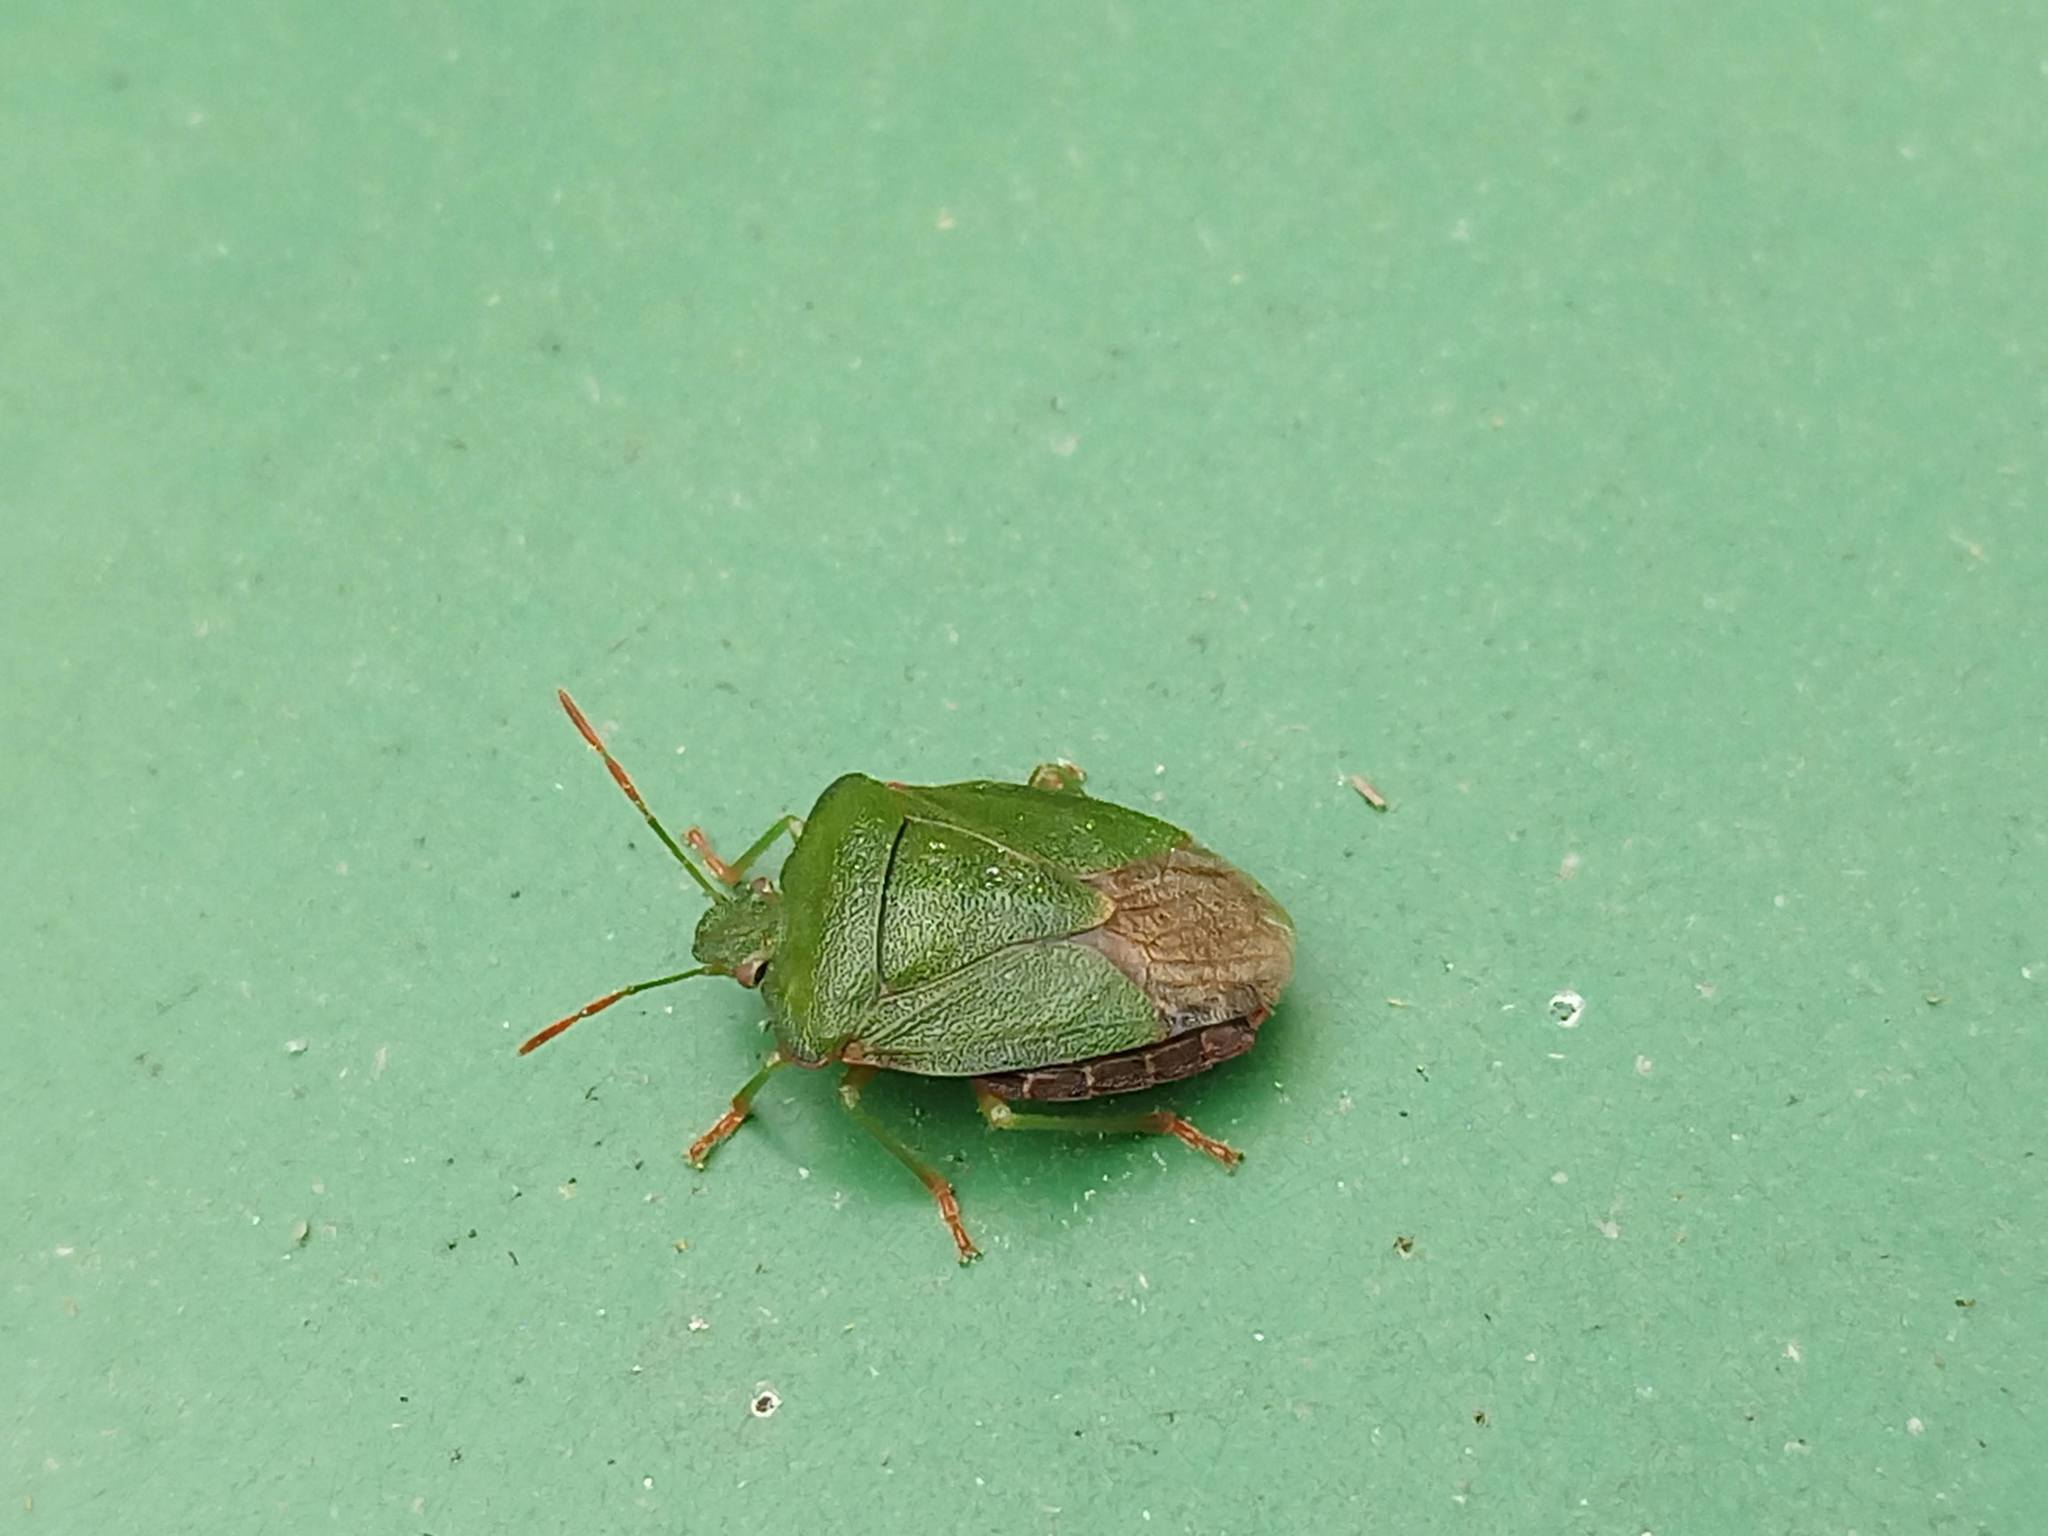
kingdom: Animalia
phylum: Arthropoda
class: Insecta
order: Hemiptera
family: Pentatomidae
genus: Palomena
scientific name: Palomena prasina
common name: Green shieldbug
